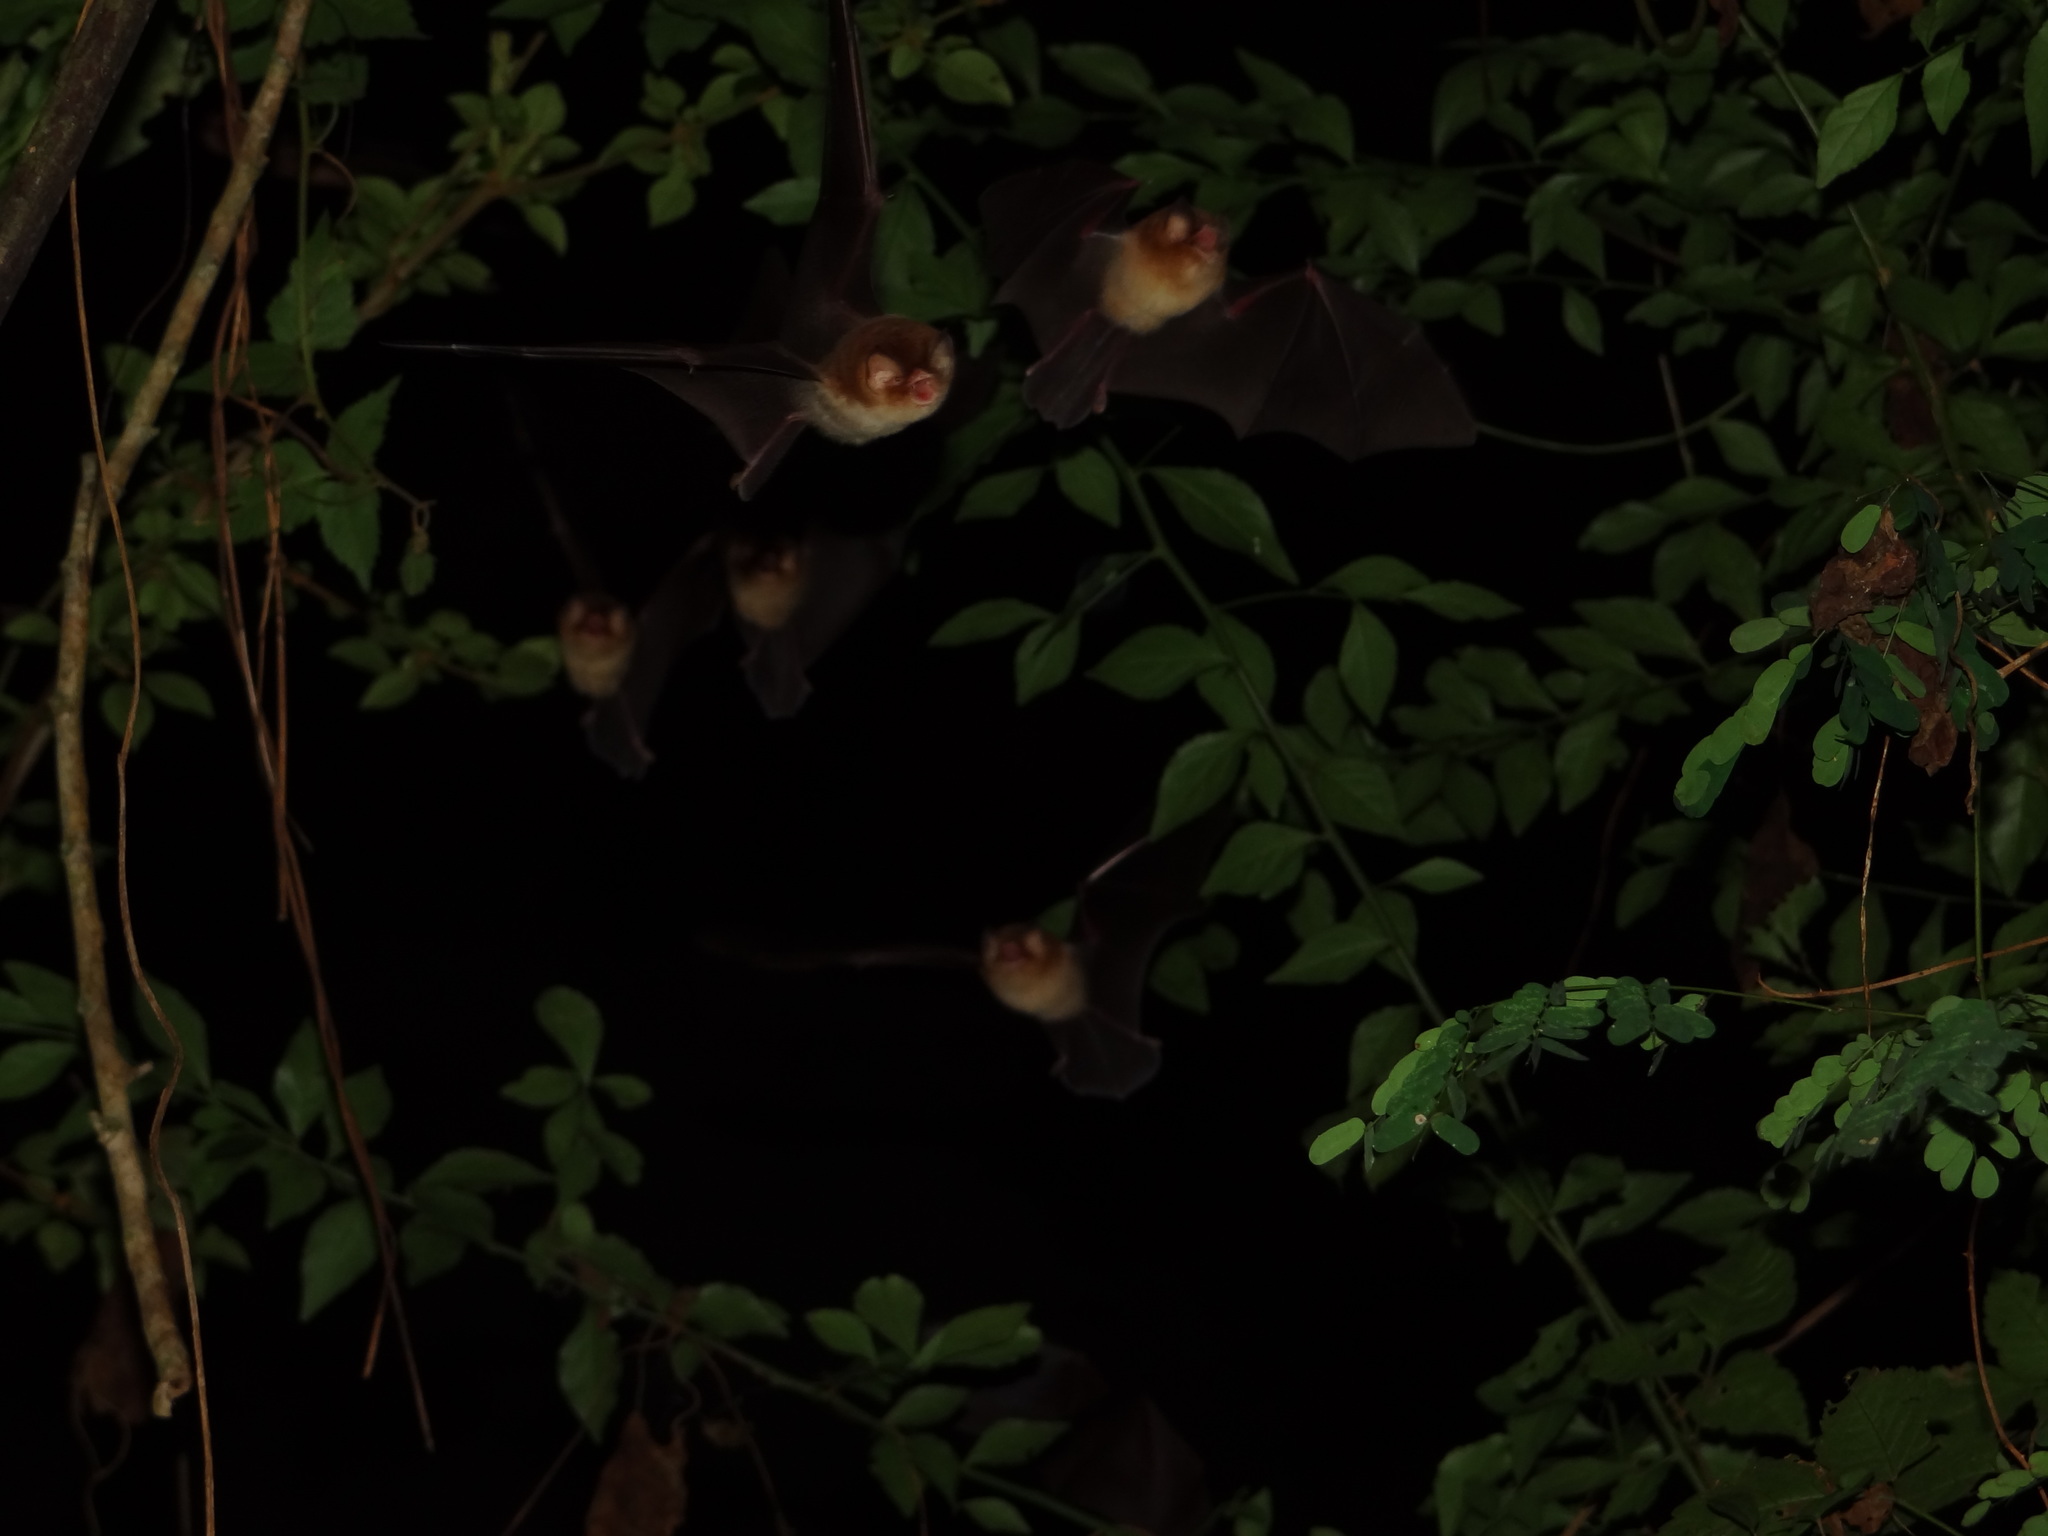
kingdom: Animalia
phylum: Chordata
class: Mammalia
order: Chiroptera
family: Natalidae
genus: Natalus
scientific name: Natalus mexicanus
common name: Mexican funnel-eared bat
